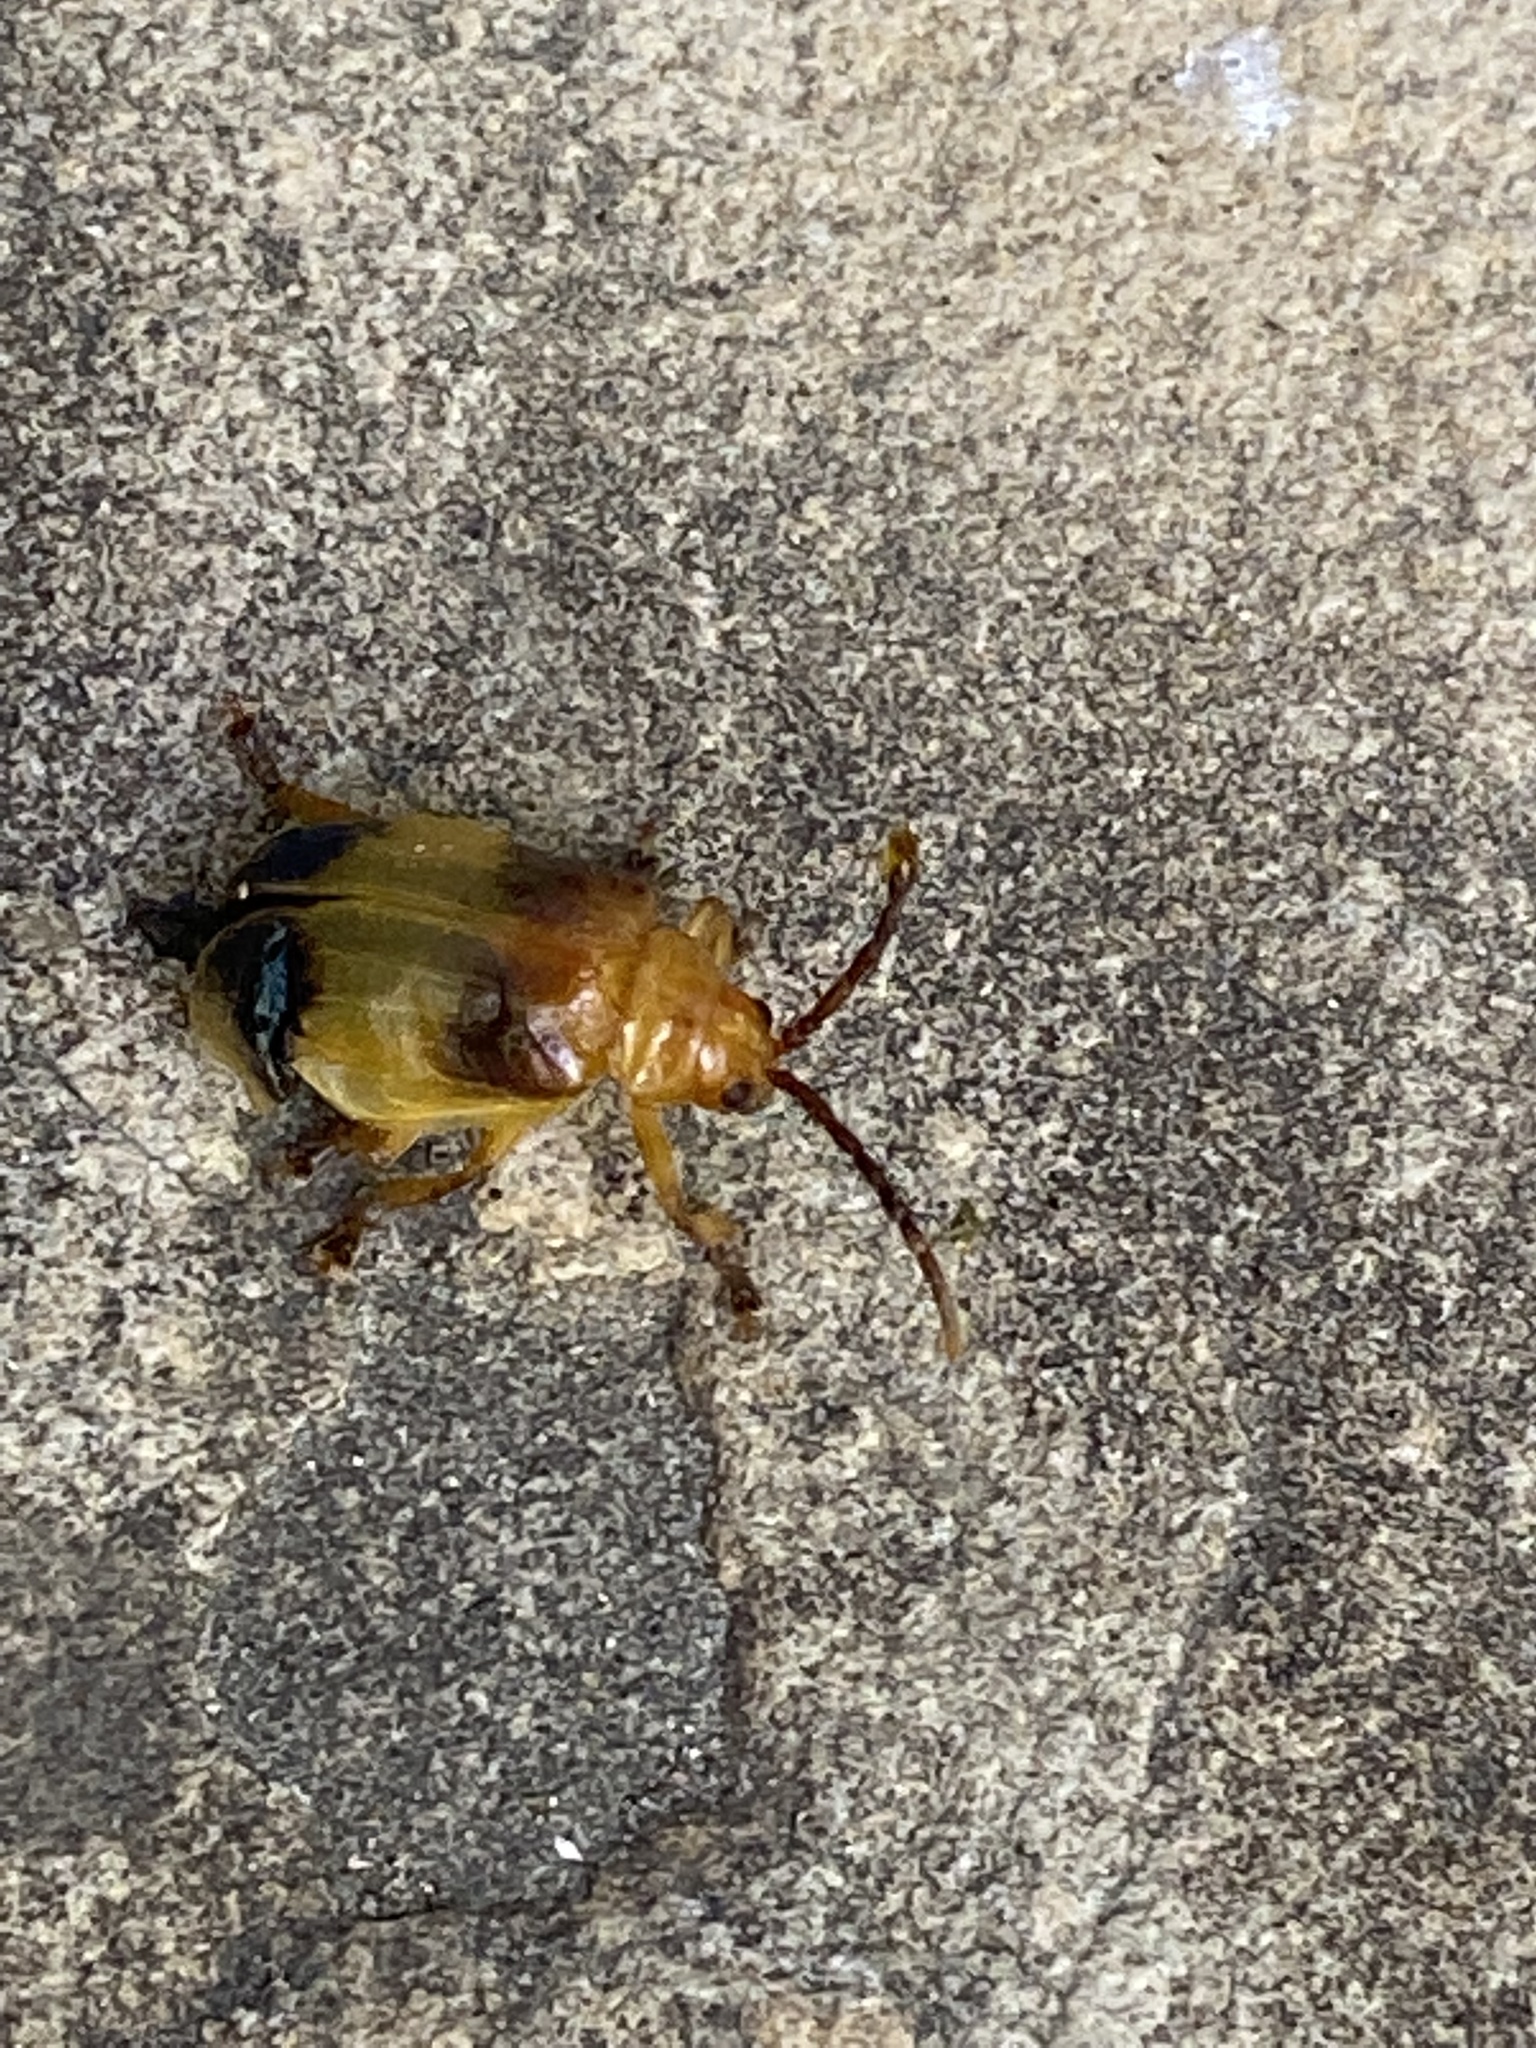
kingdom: Animalia
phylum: Arthropoda
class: Insecta
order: Coleoptera
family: Chrysomelidae
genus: Monocesta
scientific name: Monocesta coryli
